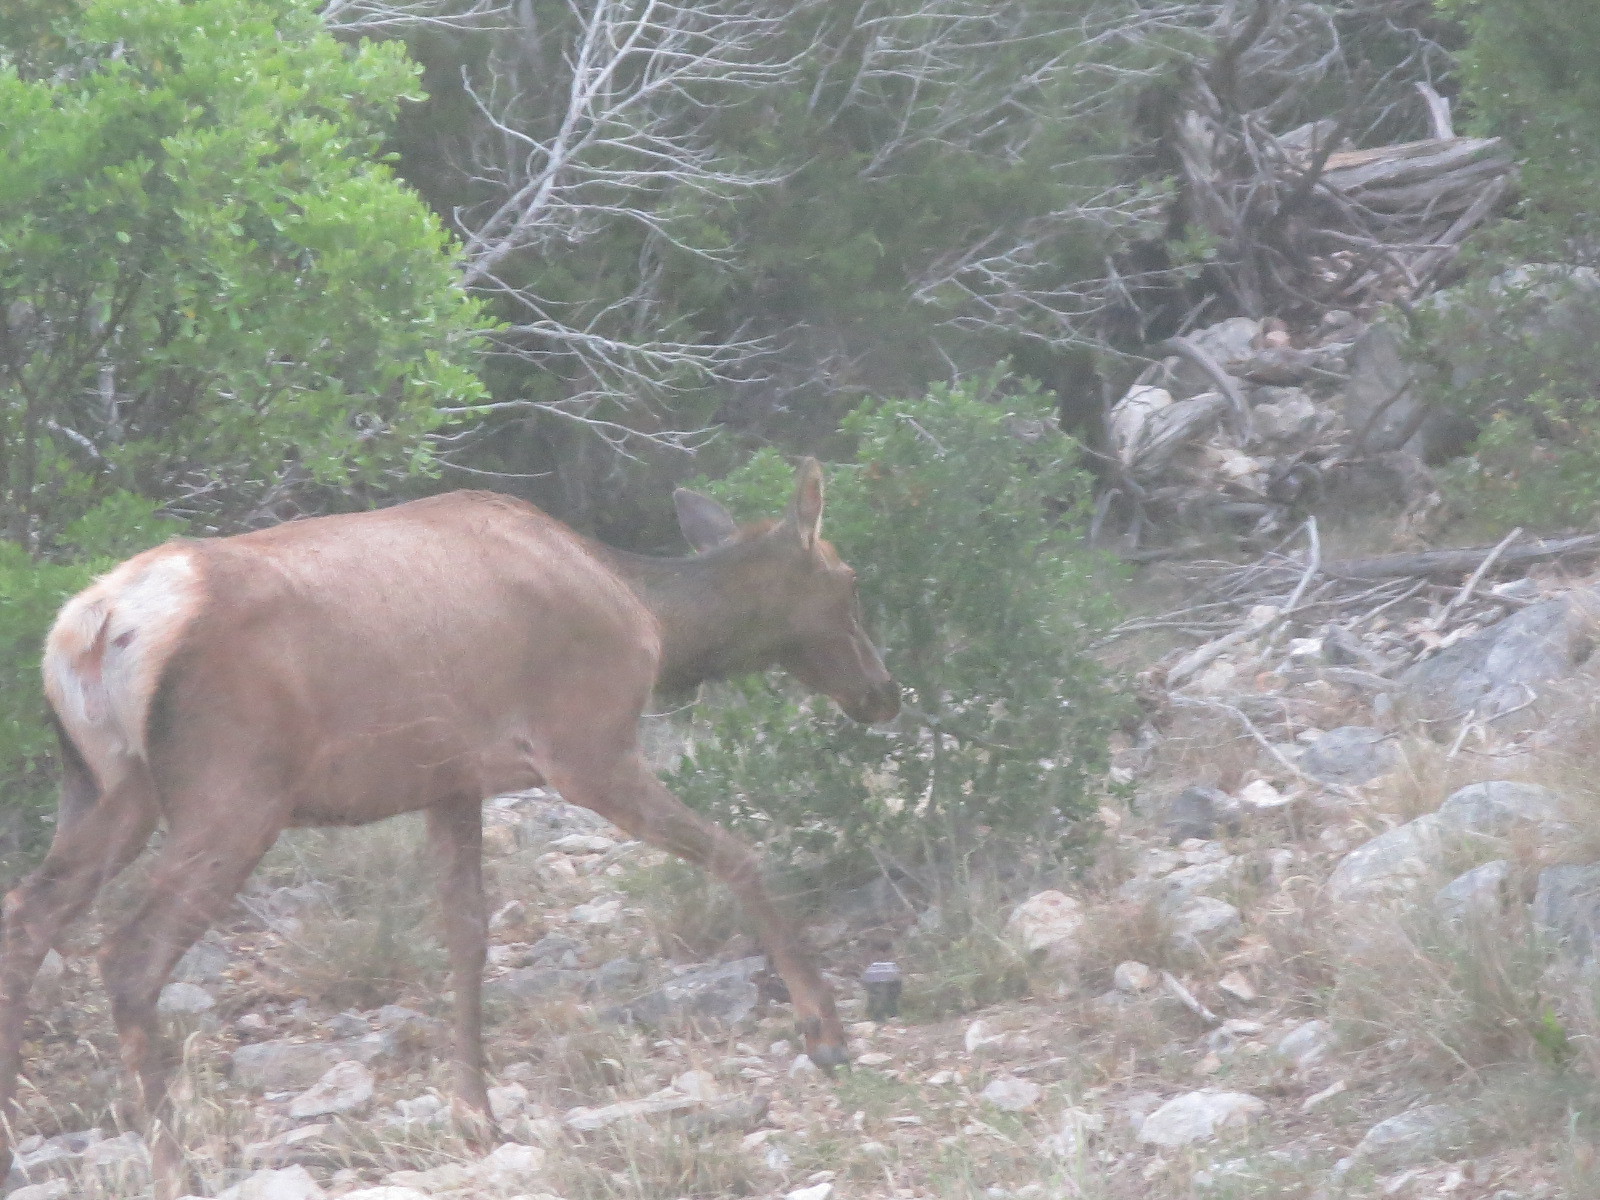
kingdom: Animalia
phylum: Chordata
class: Mammalia
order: Artiodactyla
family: Cervidae
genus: Cervus
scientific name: Cervus elaphus
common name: Red deer
